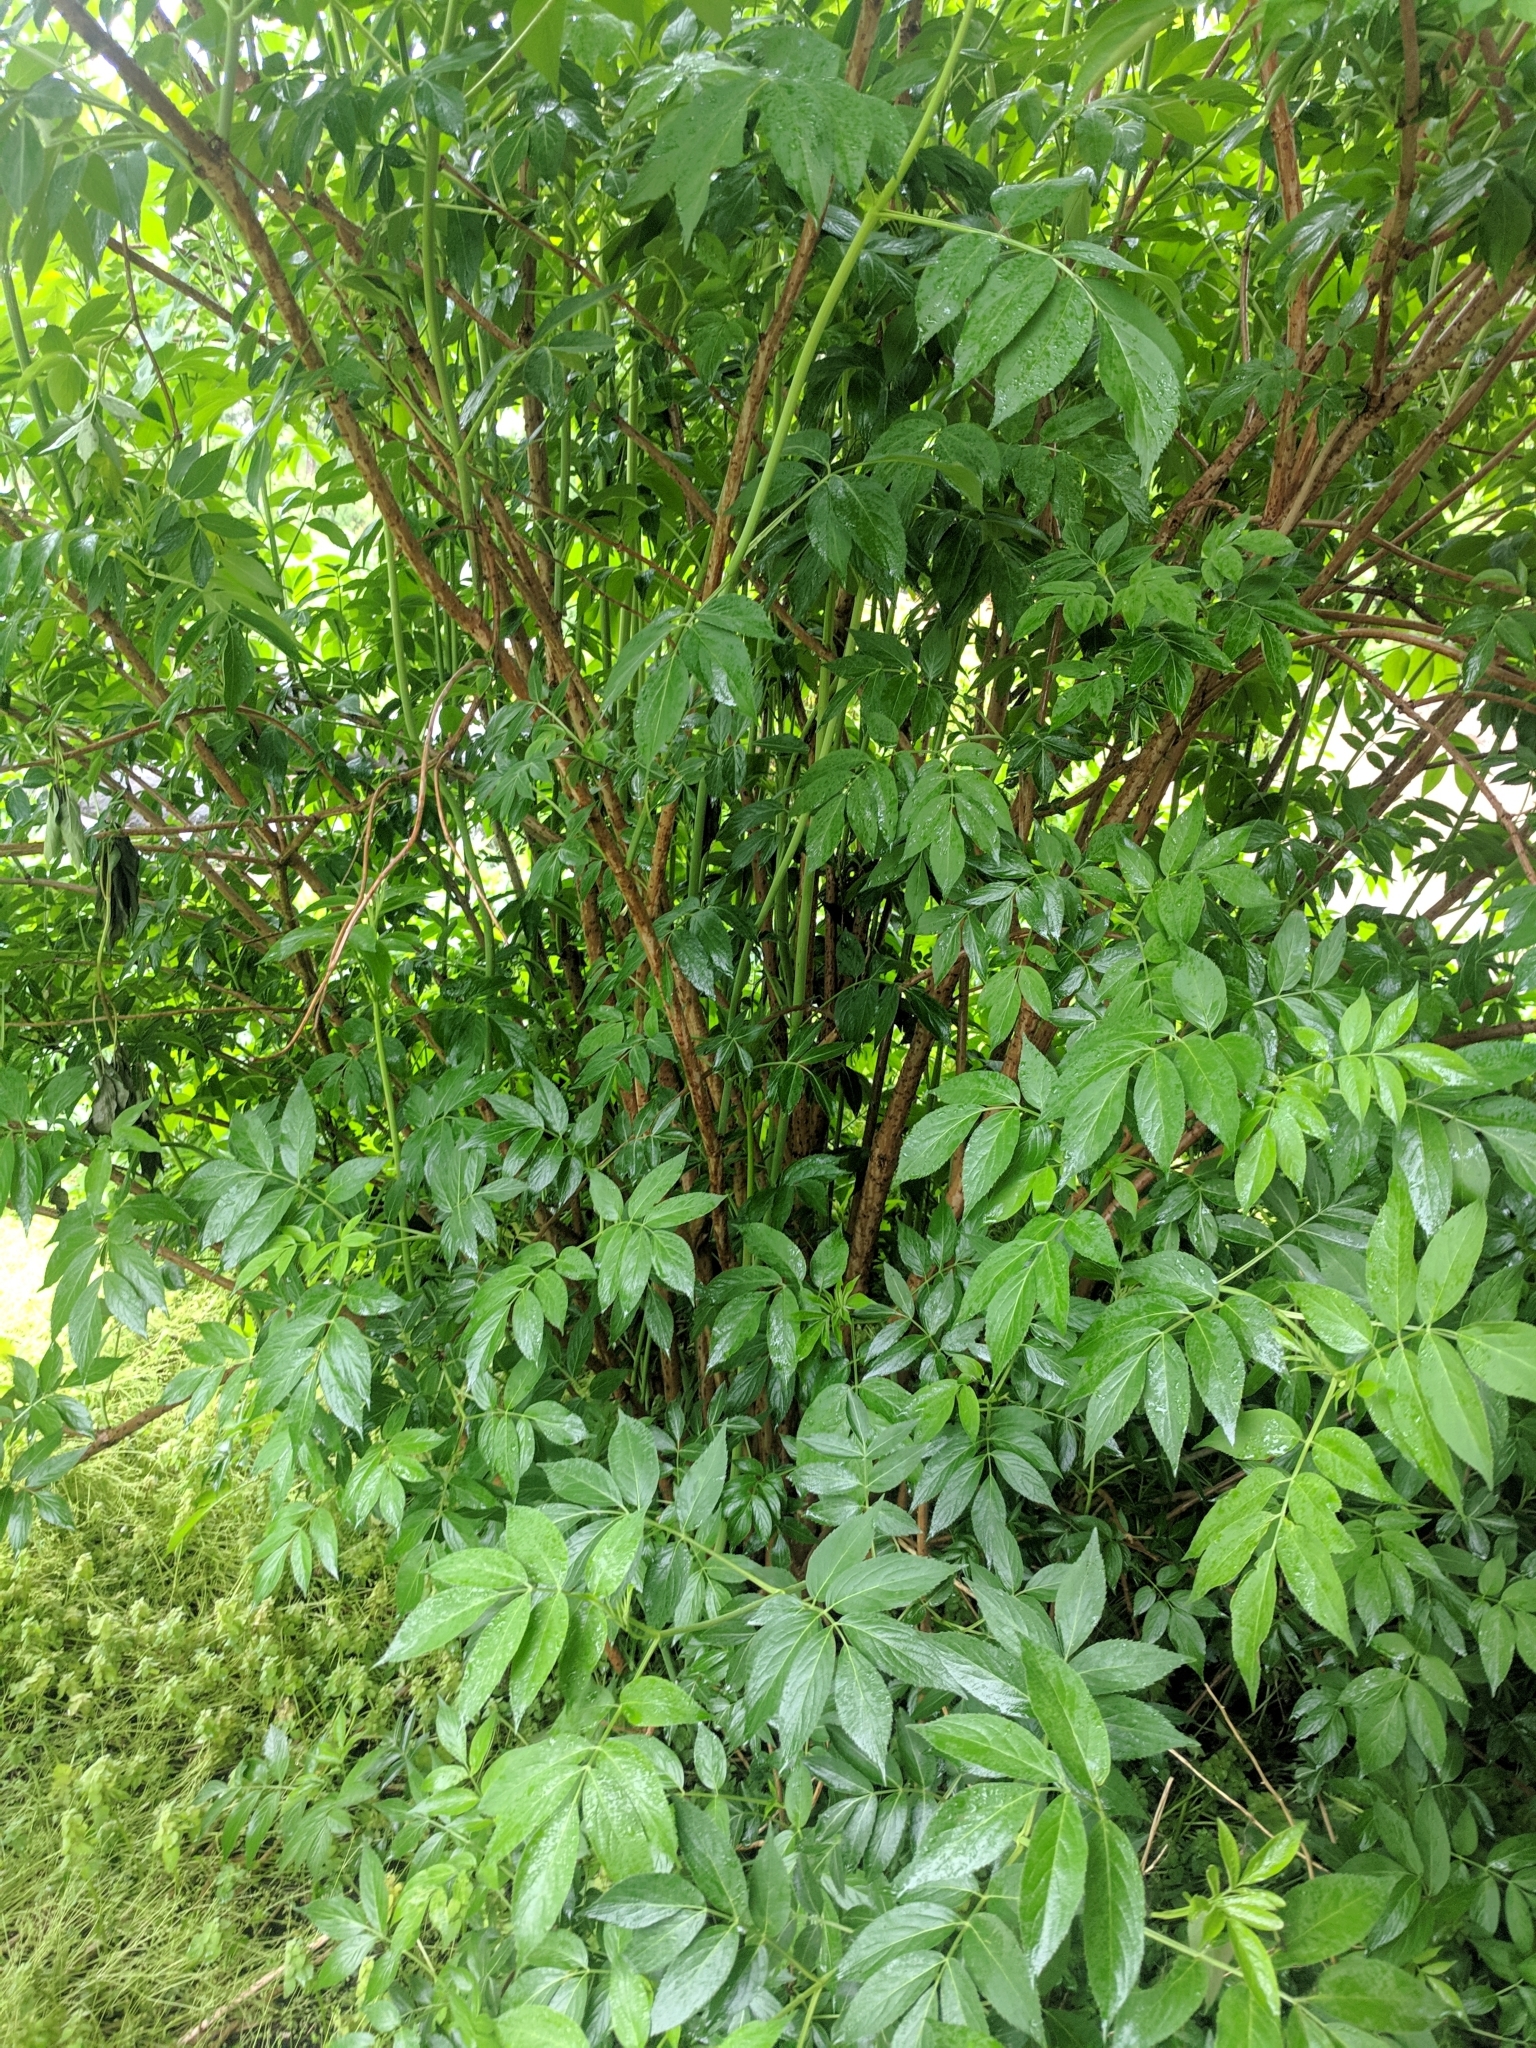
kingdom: Plantae
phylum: Tracheophyta
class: Magnoliopsida
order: Dipsacales
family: Viburnaceae
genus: Sambucus
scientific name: Sambucus canadensis
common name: American elder
